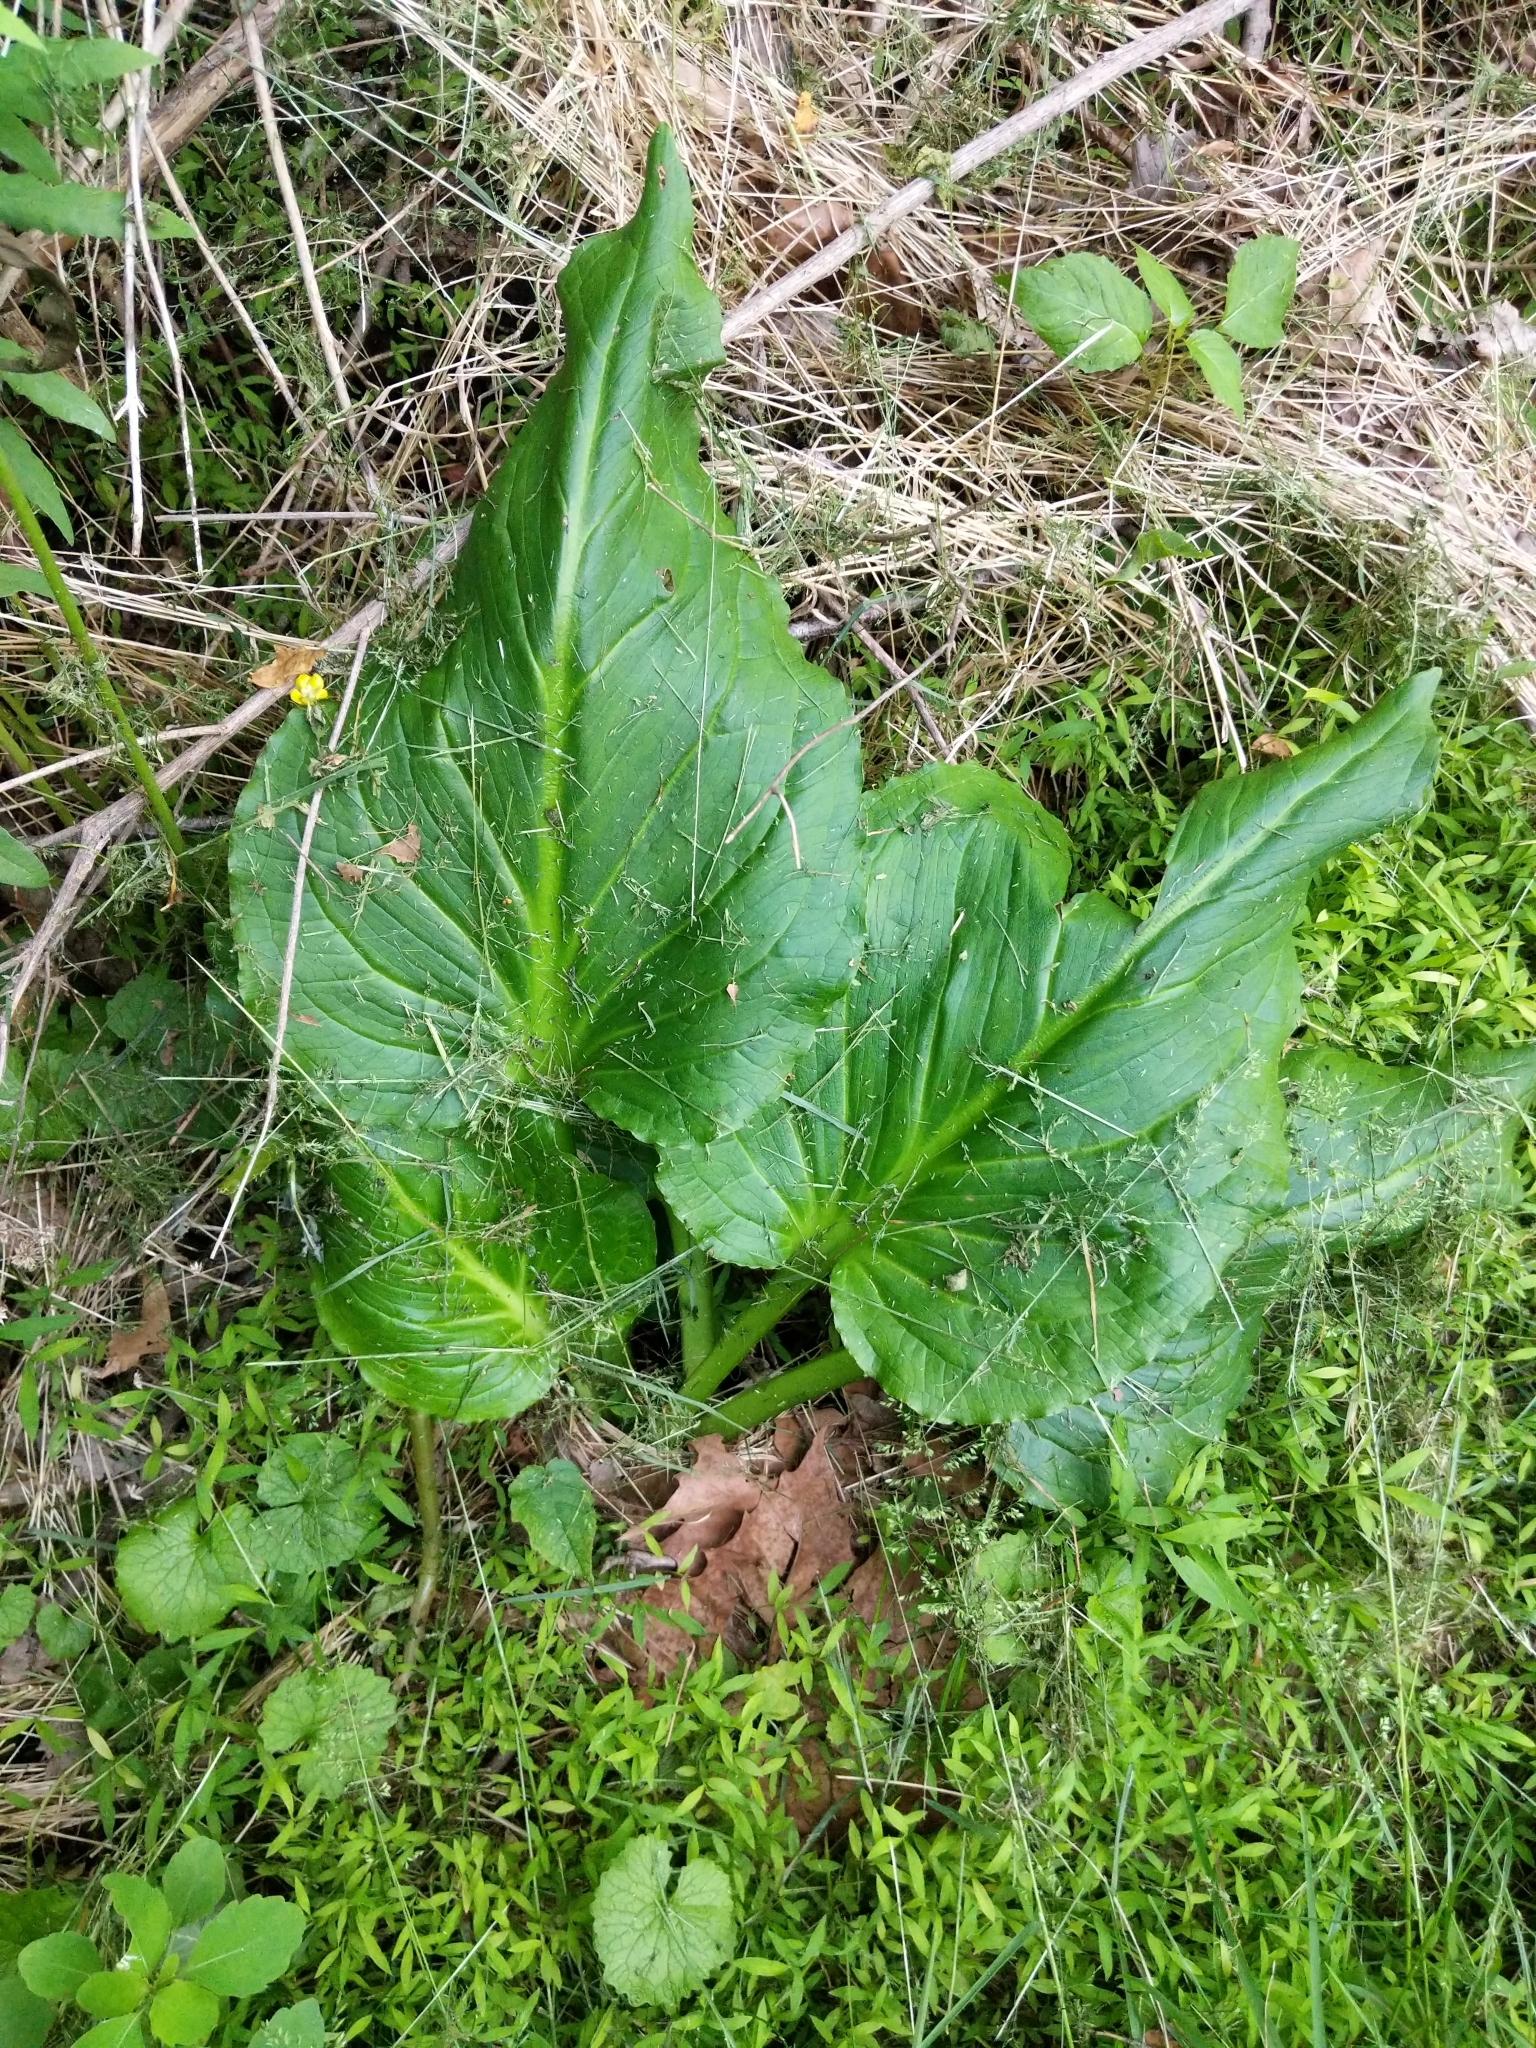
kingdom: Plantae
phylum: Tracheophyta
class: Liliopsida
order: Alismatales
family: Araceae
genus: Symplocarpus
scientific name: Symplocarpus foetidus
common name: Eastern skunk cabbage
